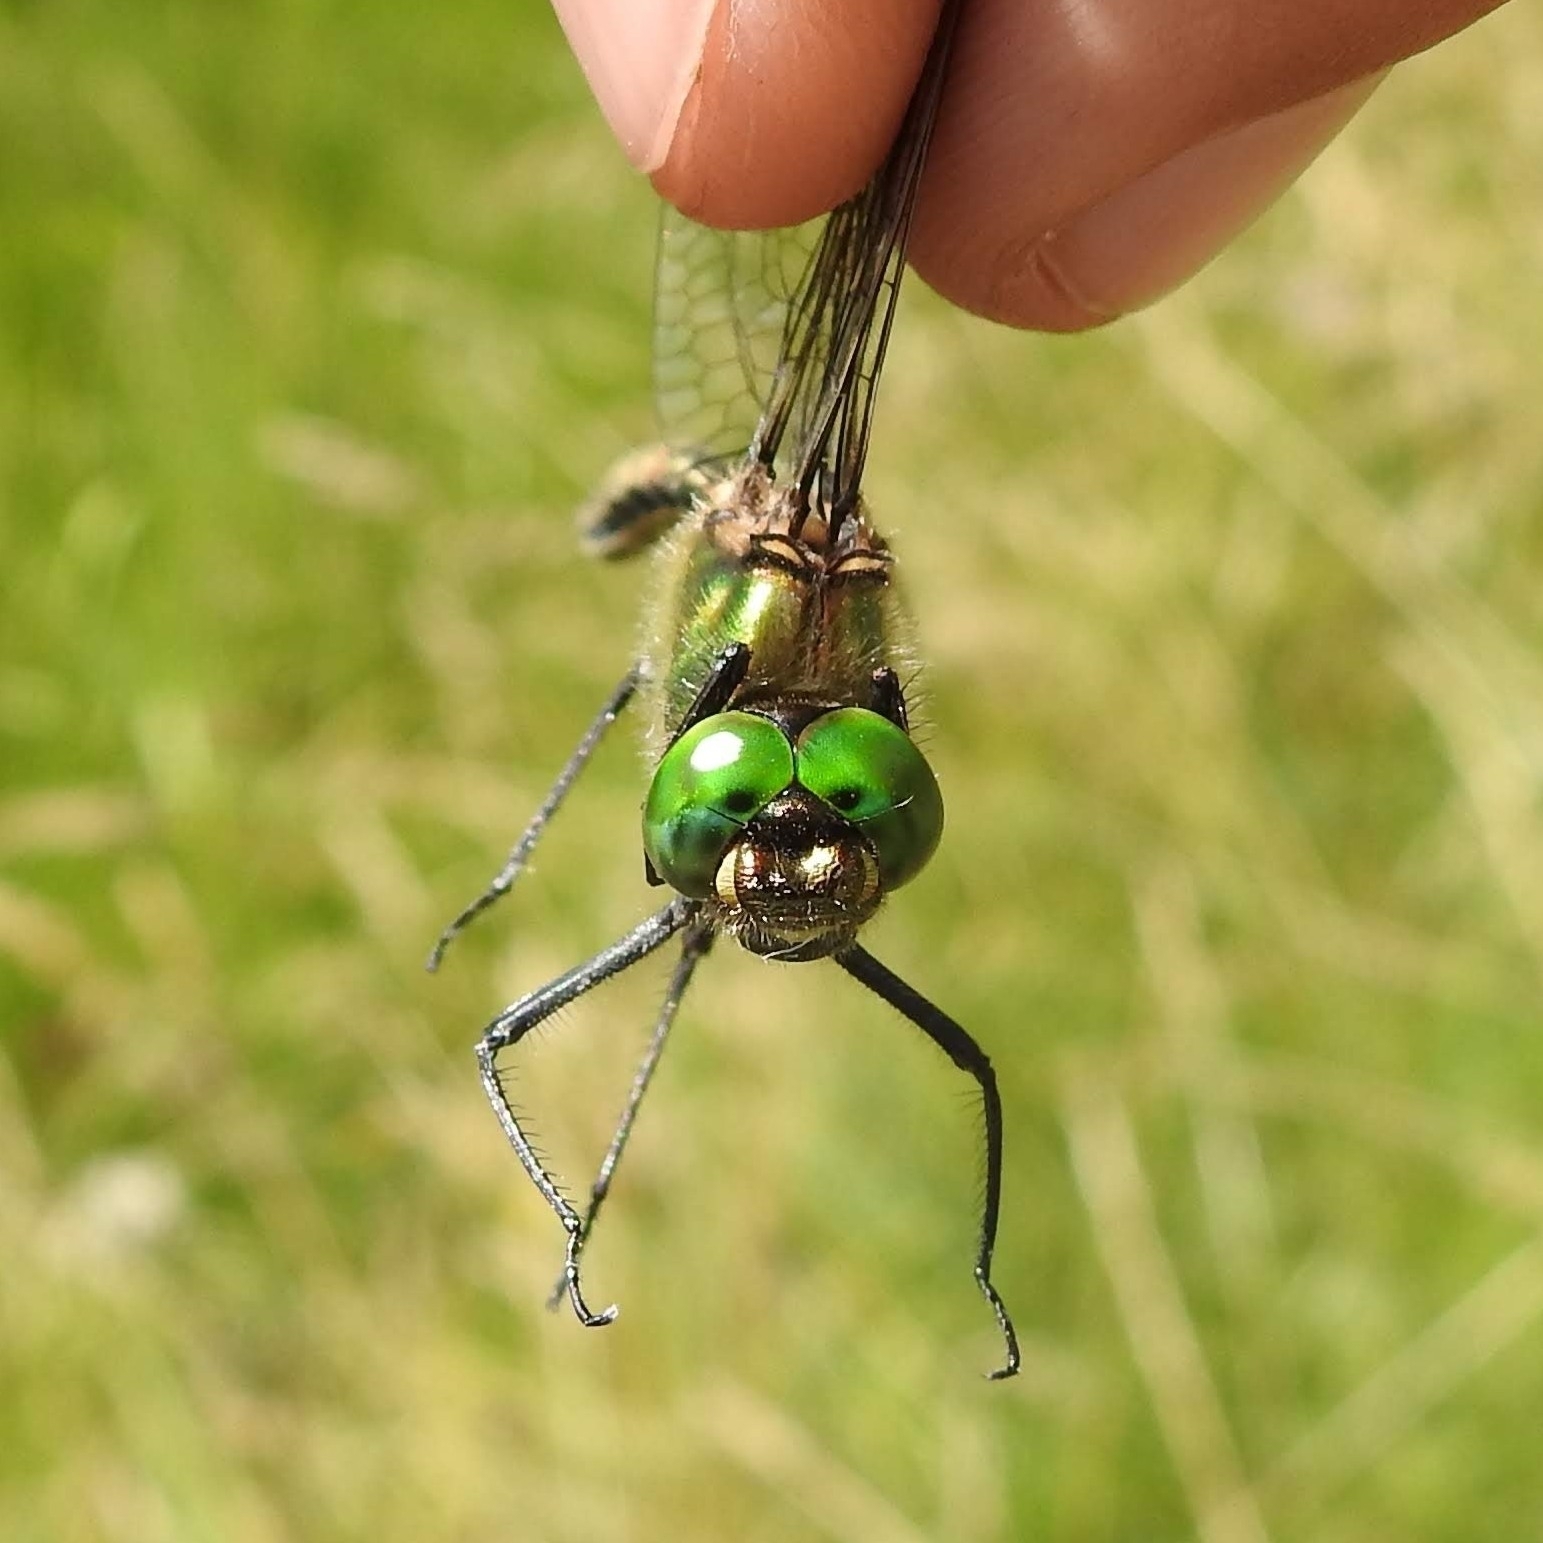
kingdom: Animalia
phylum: Arthropoda
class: Insecta
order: Odonata
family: Corduliidae
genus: Somatochlora
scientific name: Somatochlora metallica
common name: Brilliant emerald
